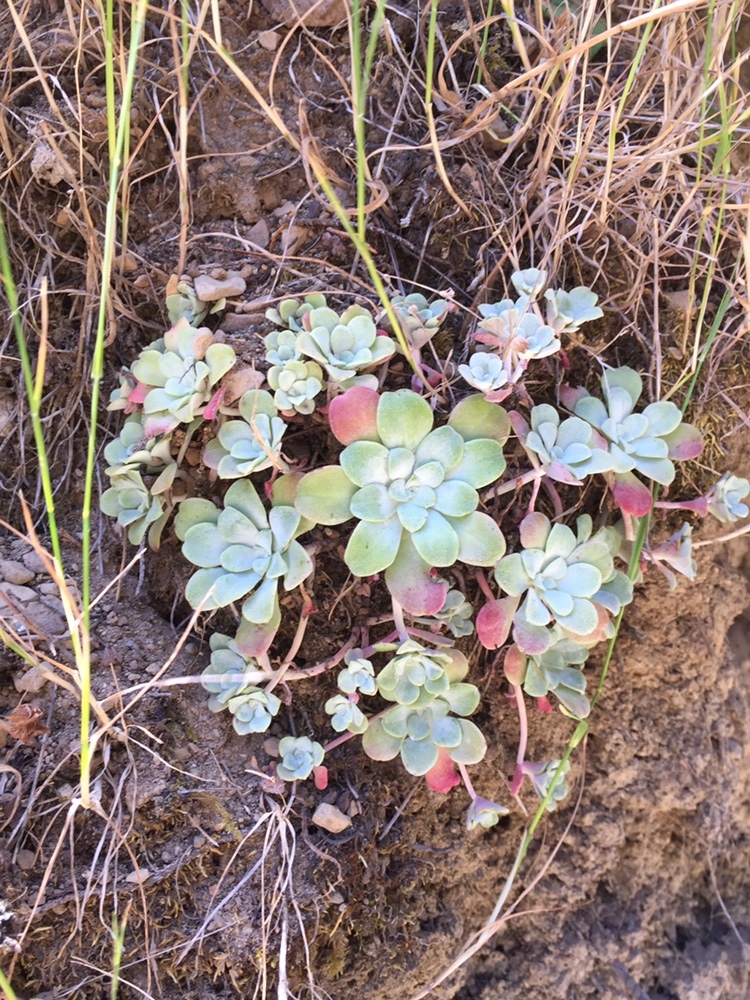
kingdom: Plantae
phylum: Tracheophyta
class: Magnoliopsida
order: Saxifragales
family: Crassulaceae
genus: Sedum
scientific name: Sedum spathulifolium
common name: Colorado stonecrop
